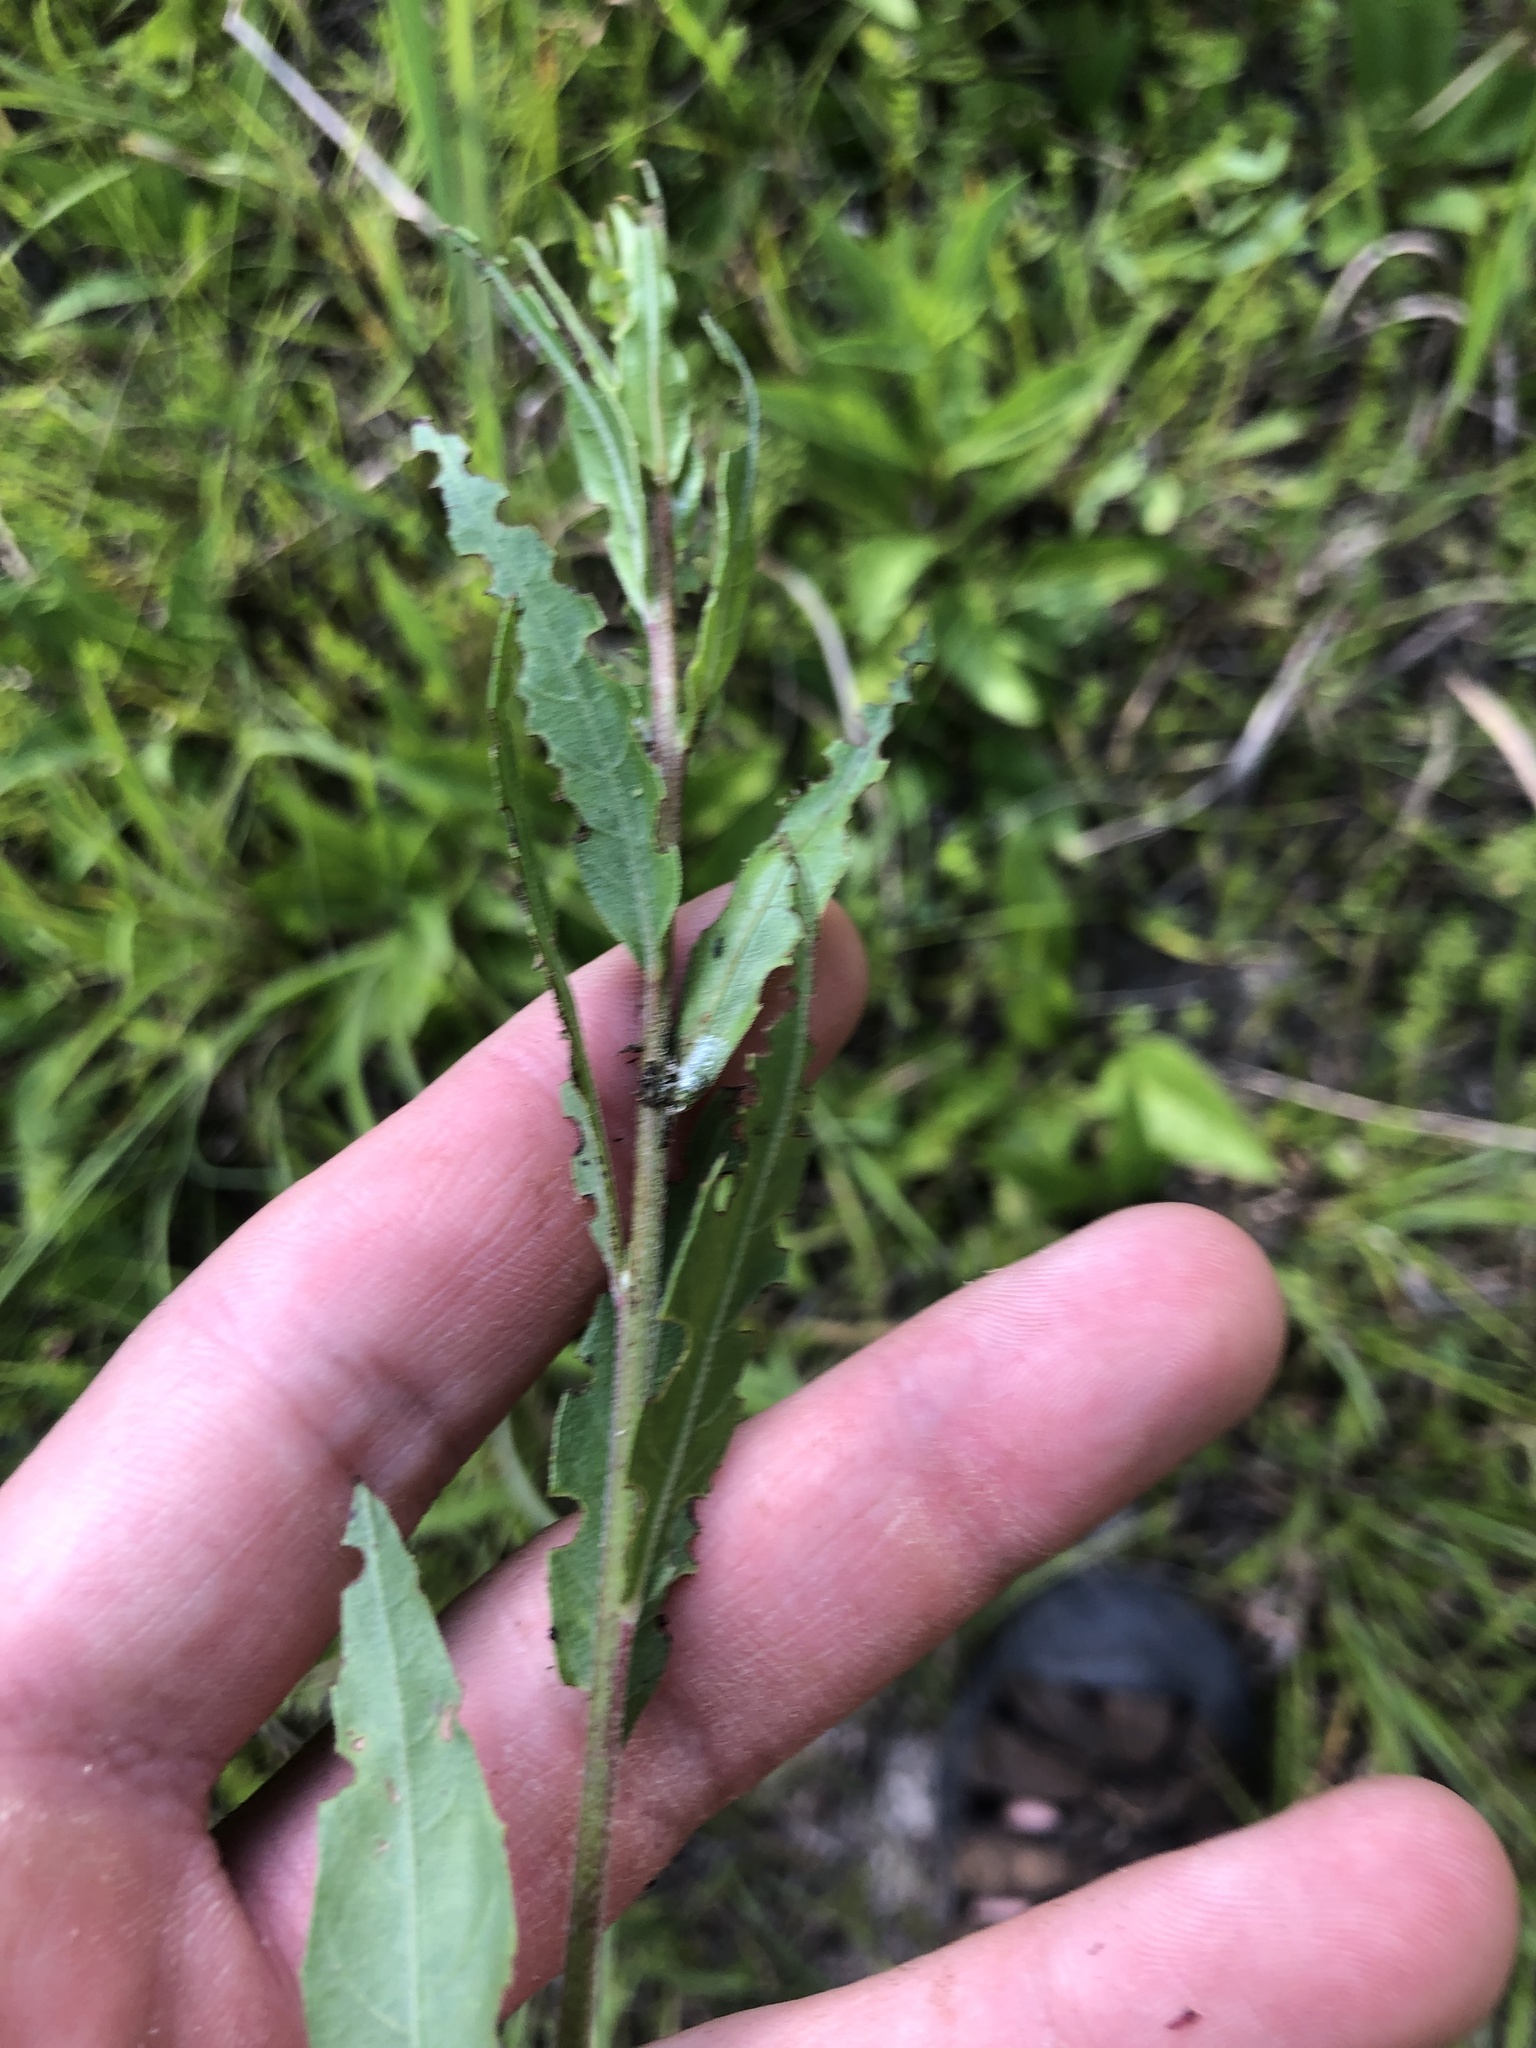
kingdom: Plantae
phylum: Tracheophyta
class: Magnoliopsida
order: Myrtales
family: Onagraceae
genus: Oenothera
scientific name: Oenothera filiformis
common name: Longflower beeblossom
